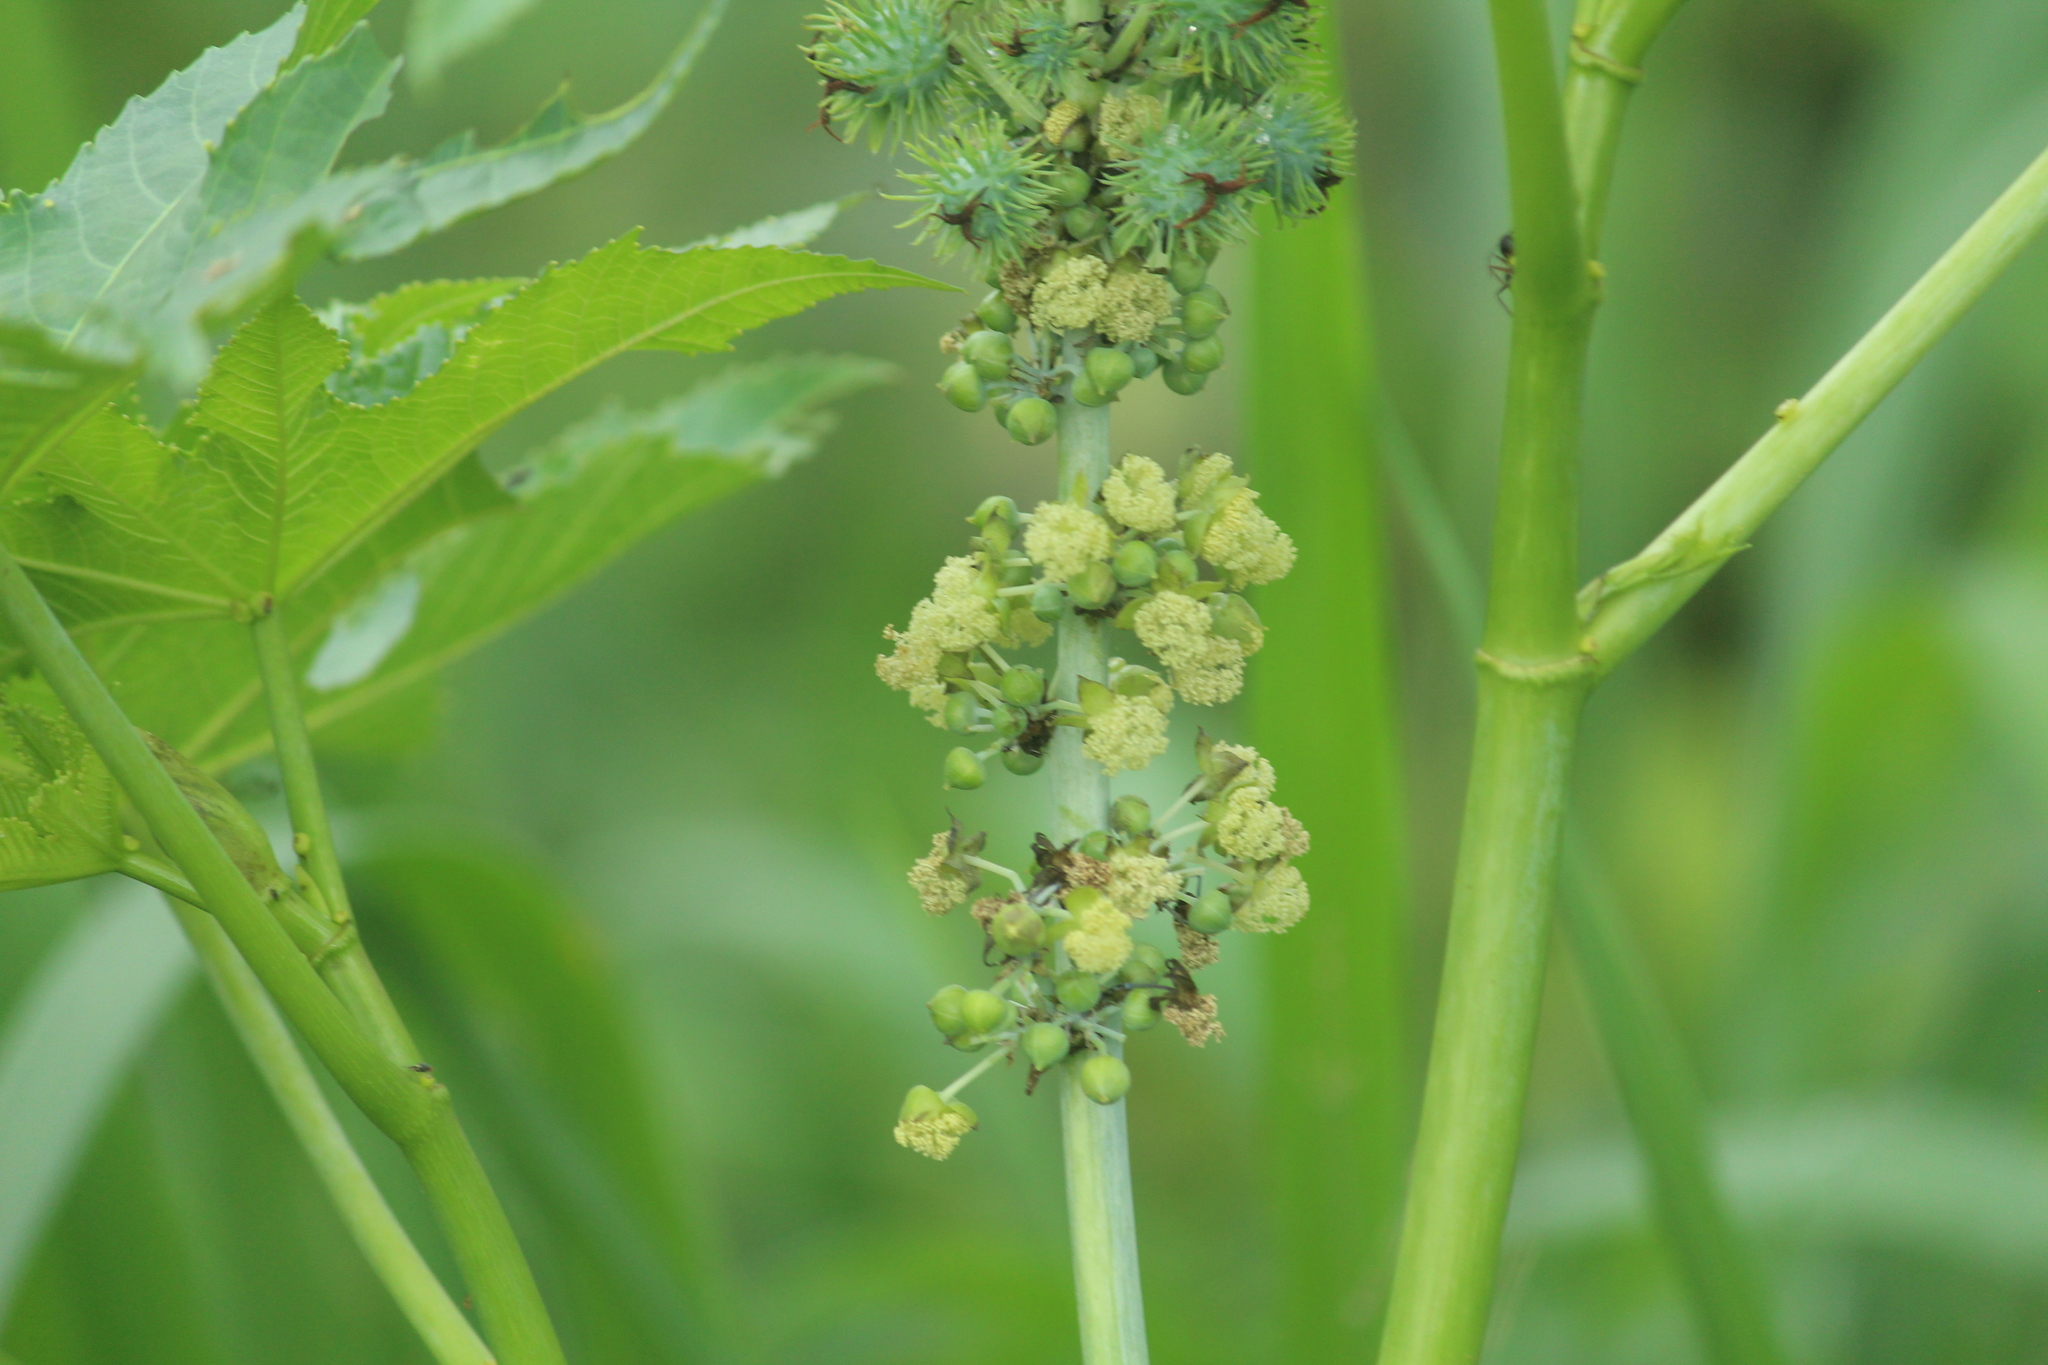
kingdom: Plantae
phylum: Tracheophyta
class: Magnoliopsida
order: Malpighiales
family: Euphorbiaceae
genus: Ricinus
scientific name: Ricinus communis
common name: Castor-oil-plant
